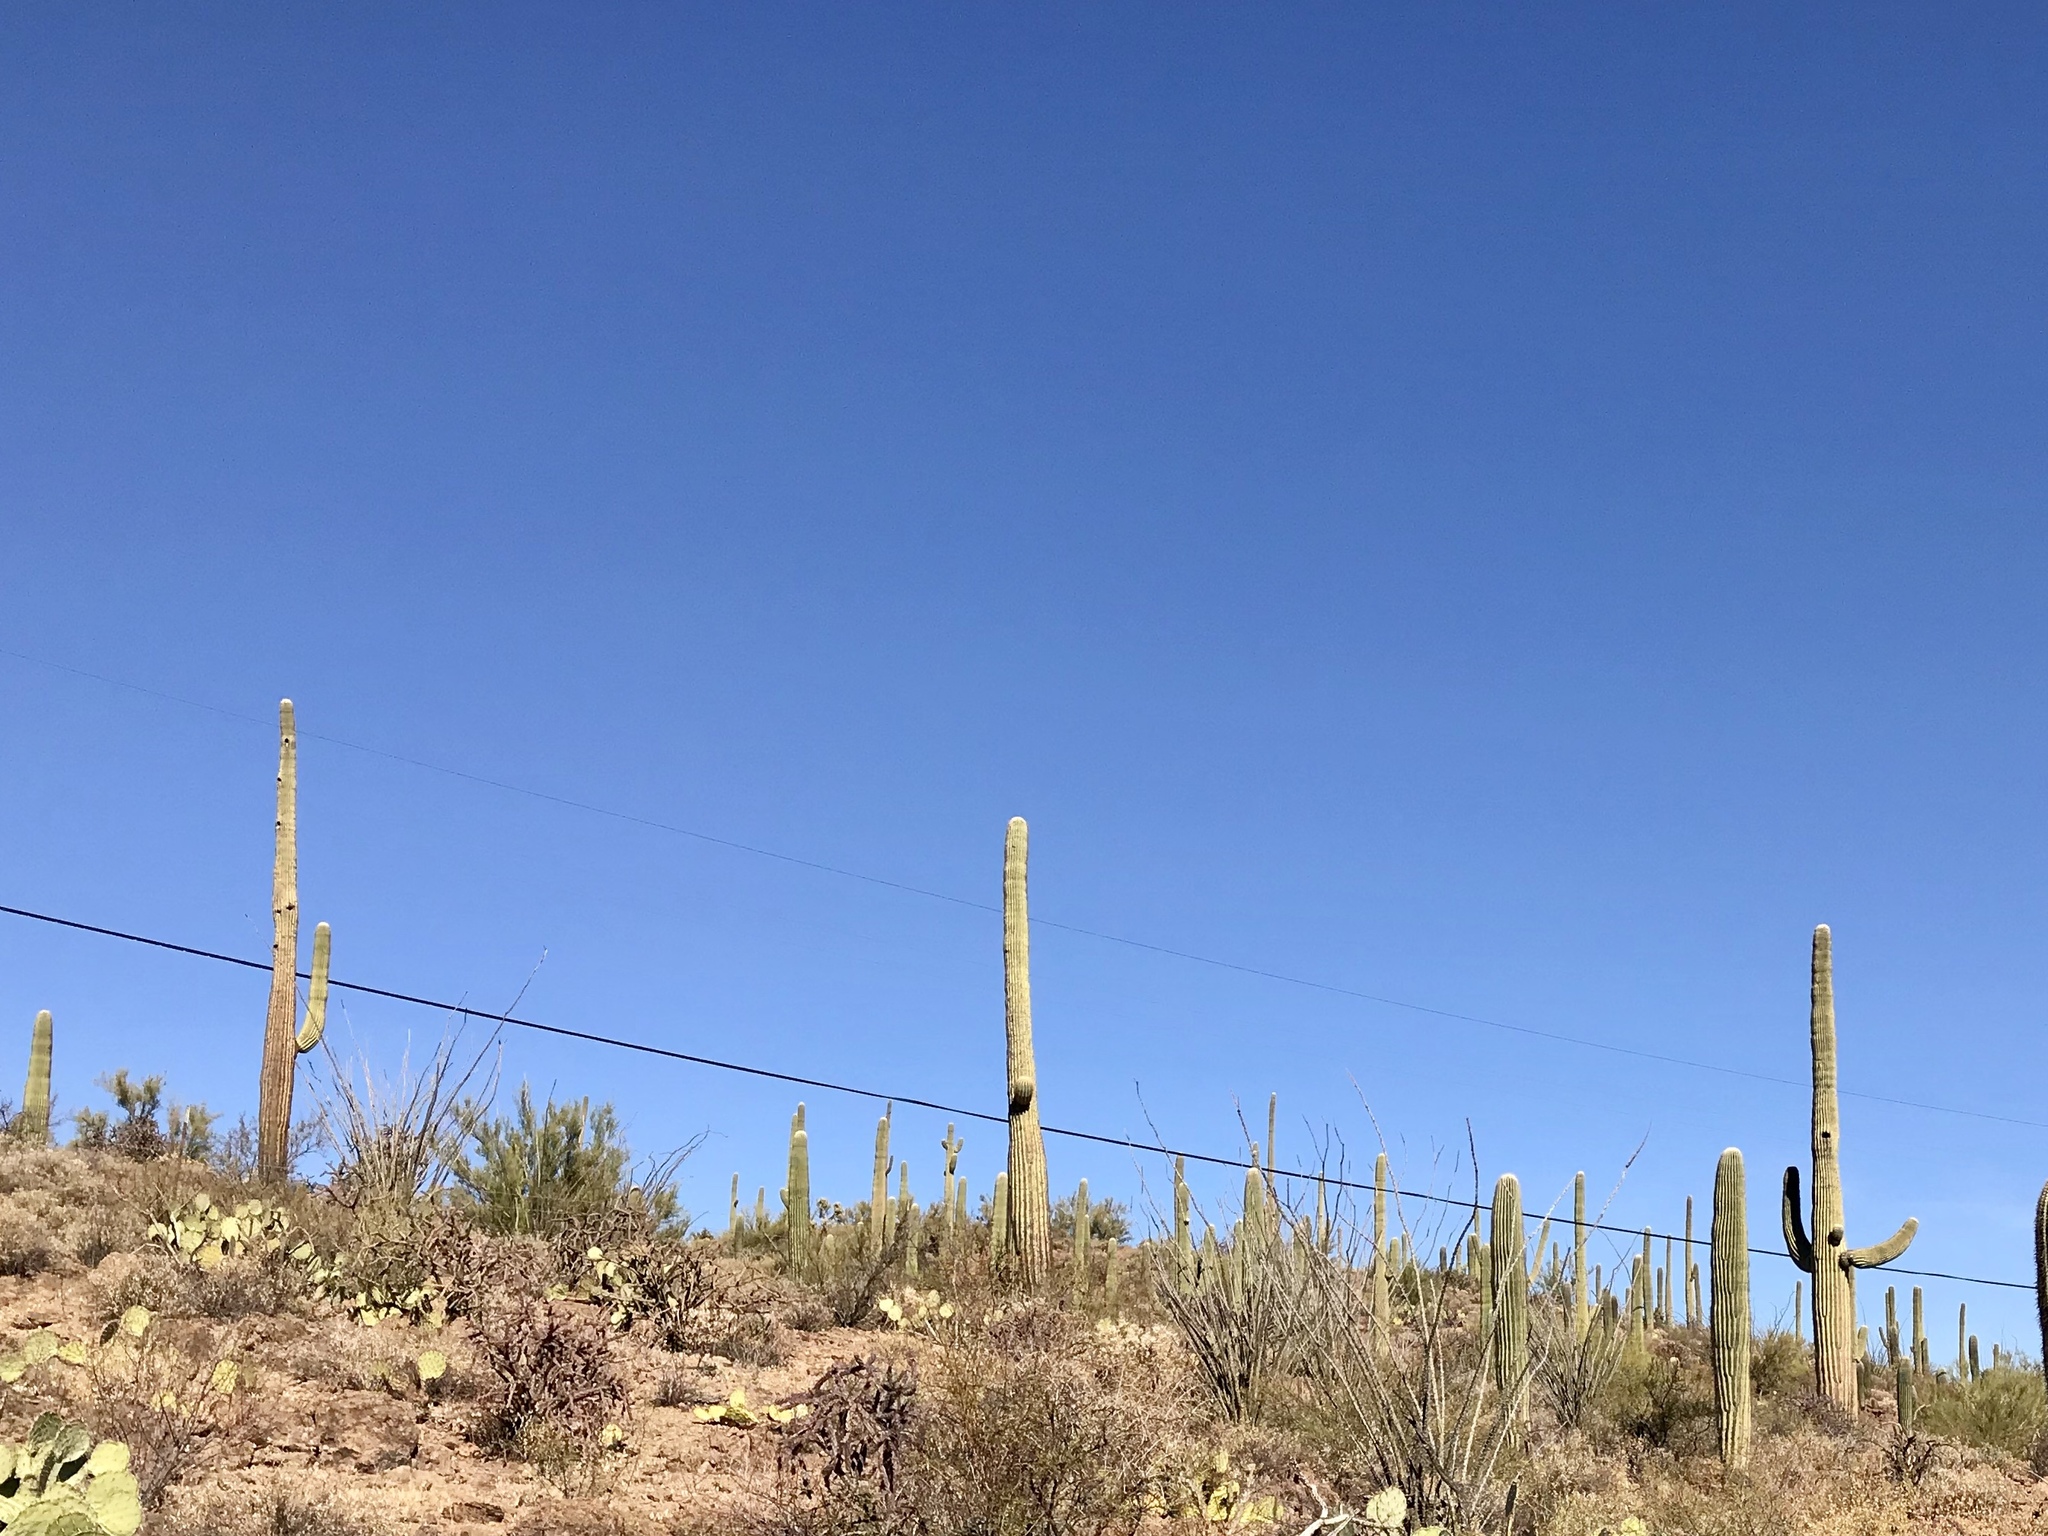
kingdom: Plantae
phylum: Tracheophyta
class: Magnoliopsida
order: Caryophyllales
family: Cactaceae
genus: Carnegiea
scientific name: Carnegiea gigantea
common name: Saguaro
